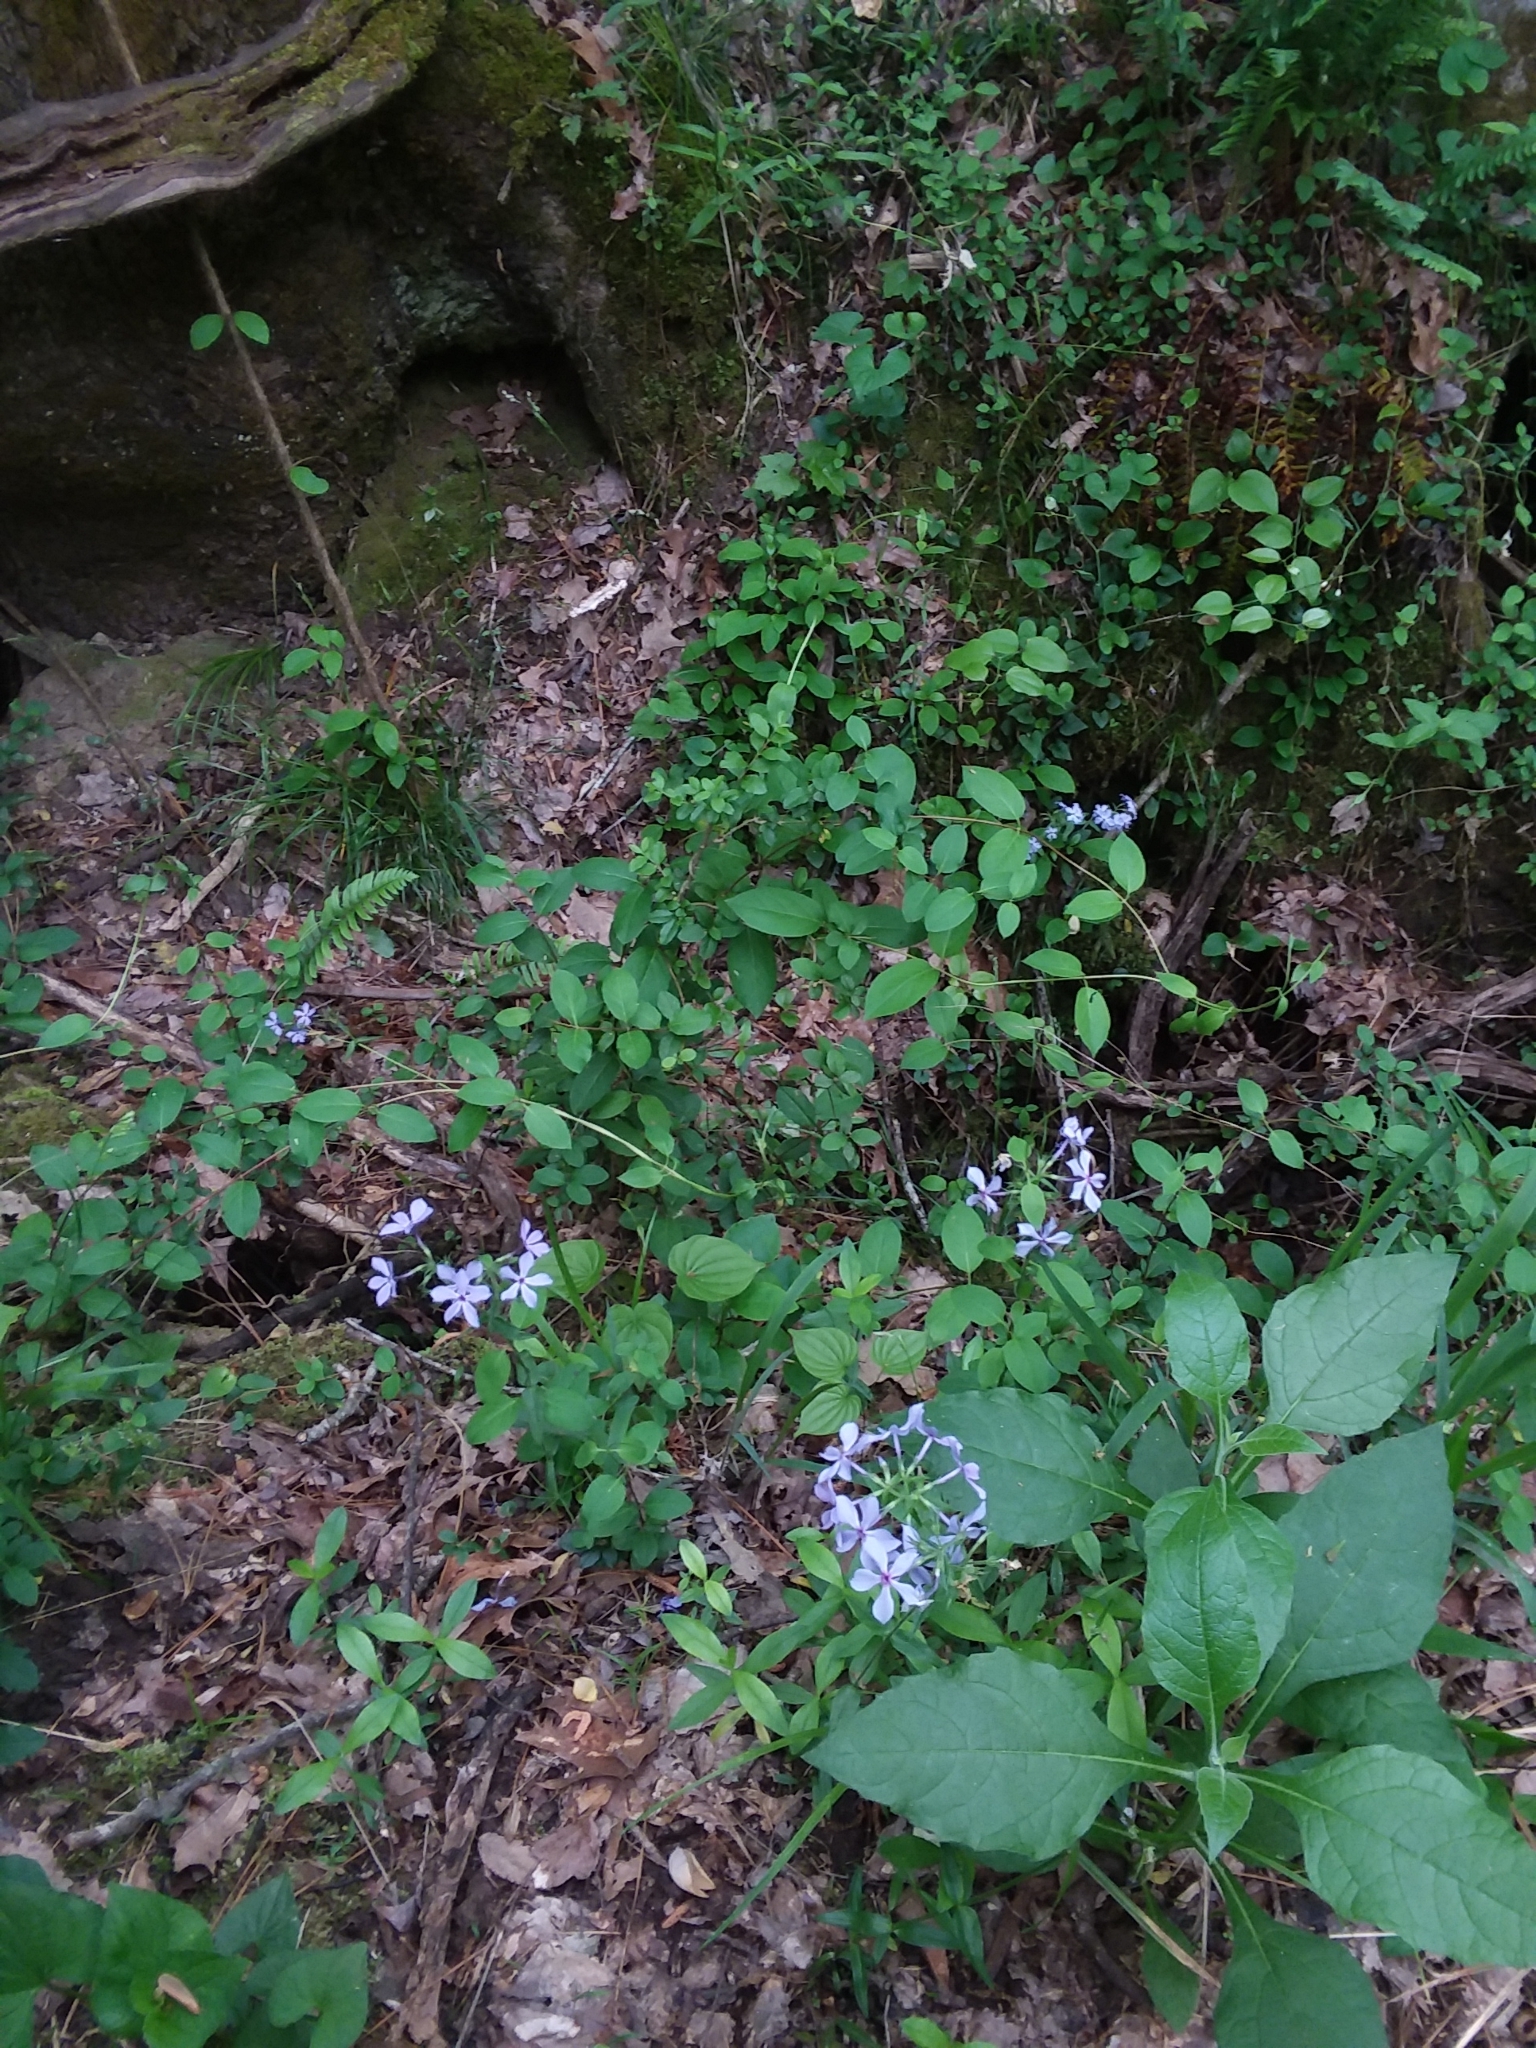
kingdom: Plantae
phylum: Tracheophyta
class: Magnoliopsida
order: Ericales
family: Polemoniaceae
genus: Phlox
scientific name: Phlox divaricata
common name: Blue phlox
